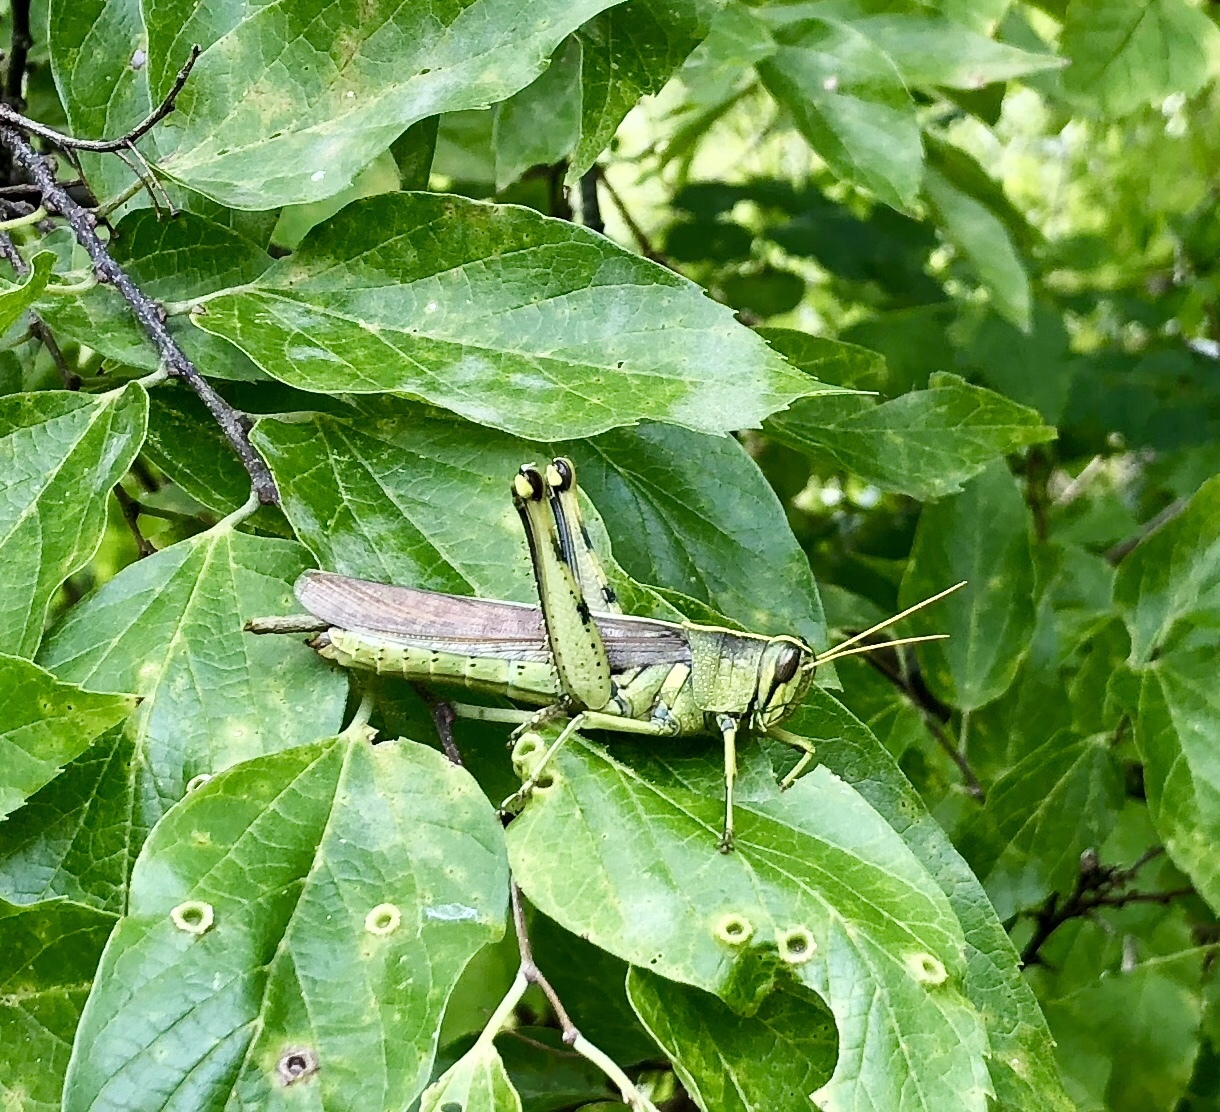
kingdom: Animalia
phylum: Arthropoda
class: Insecta
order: Orthoptera
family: Acrididae
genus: Schistocerca
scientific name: Schistocerca obscura
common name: Obscure bird grasshopper
